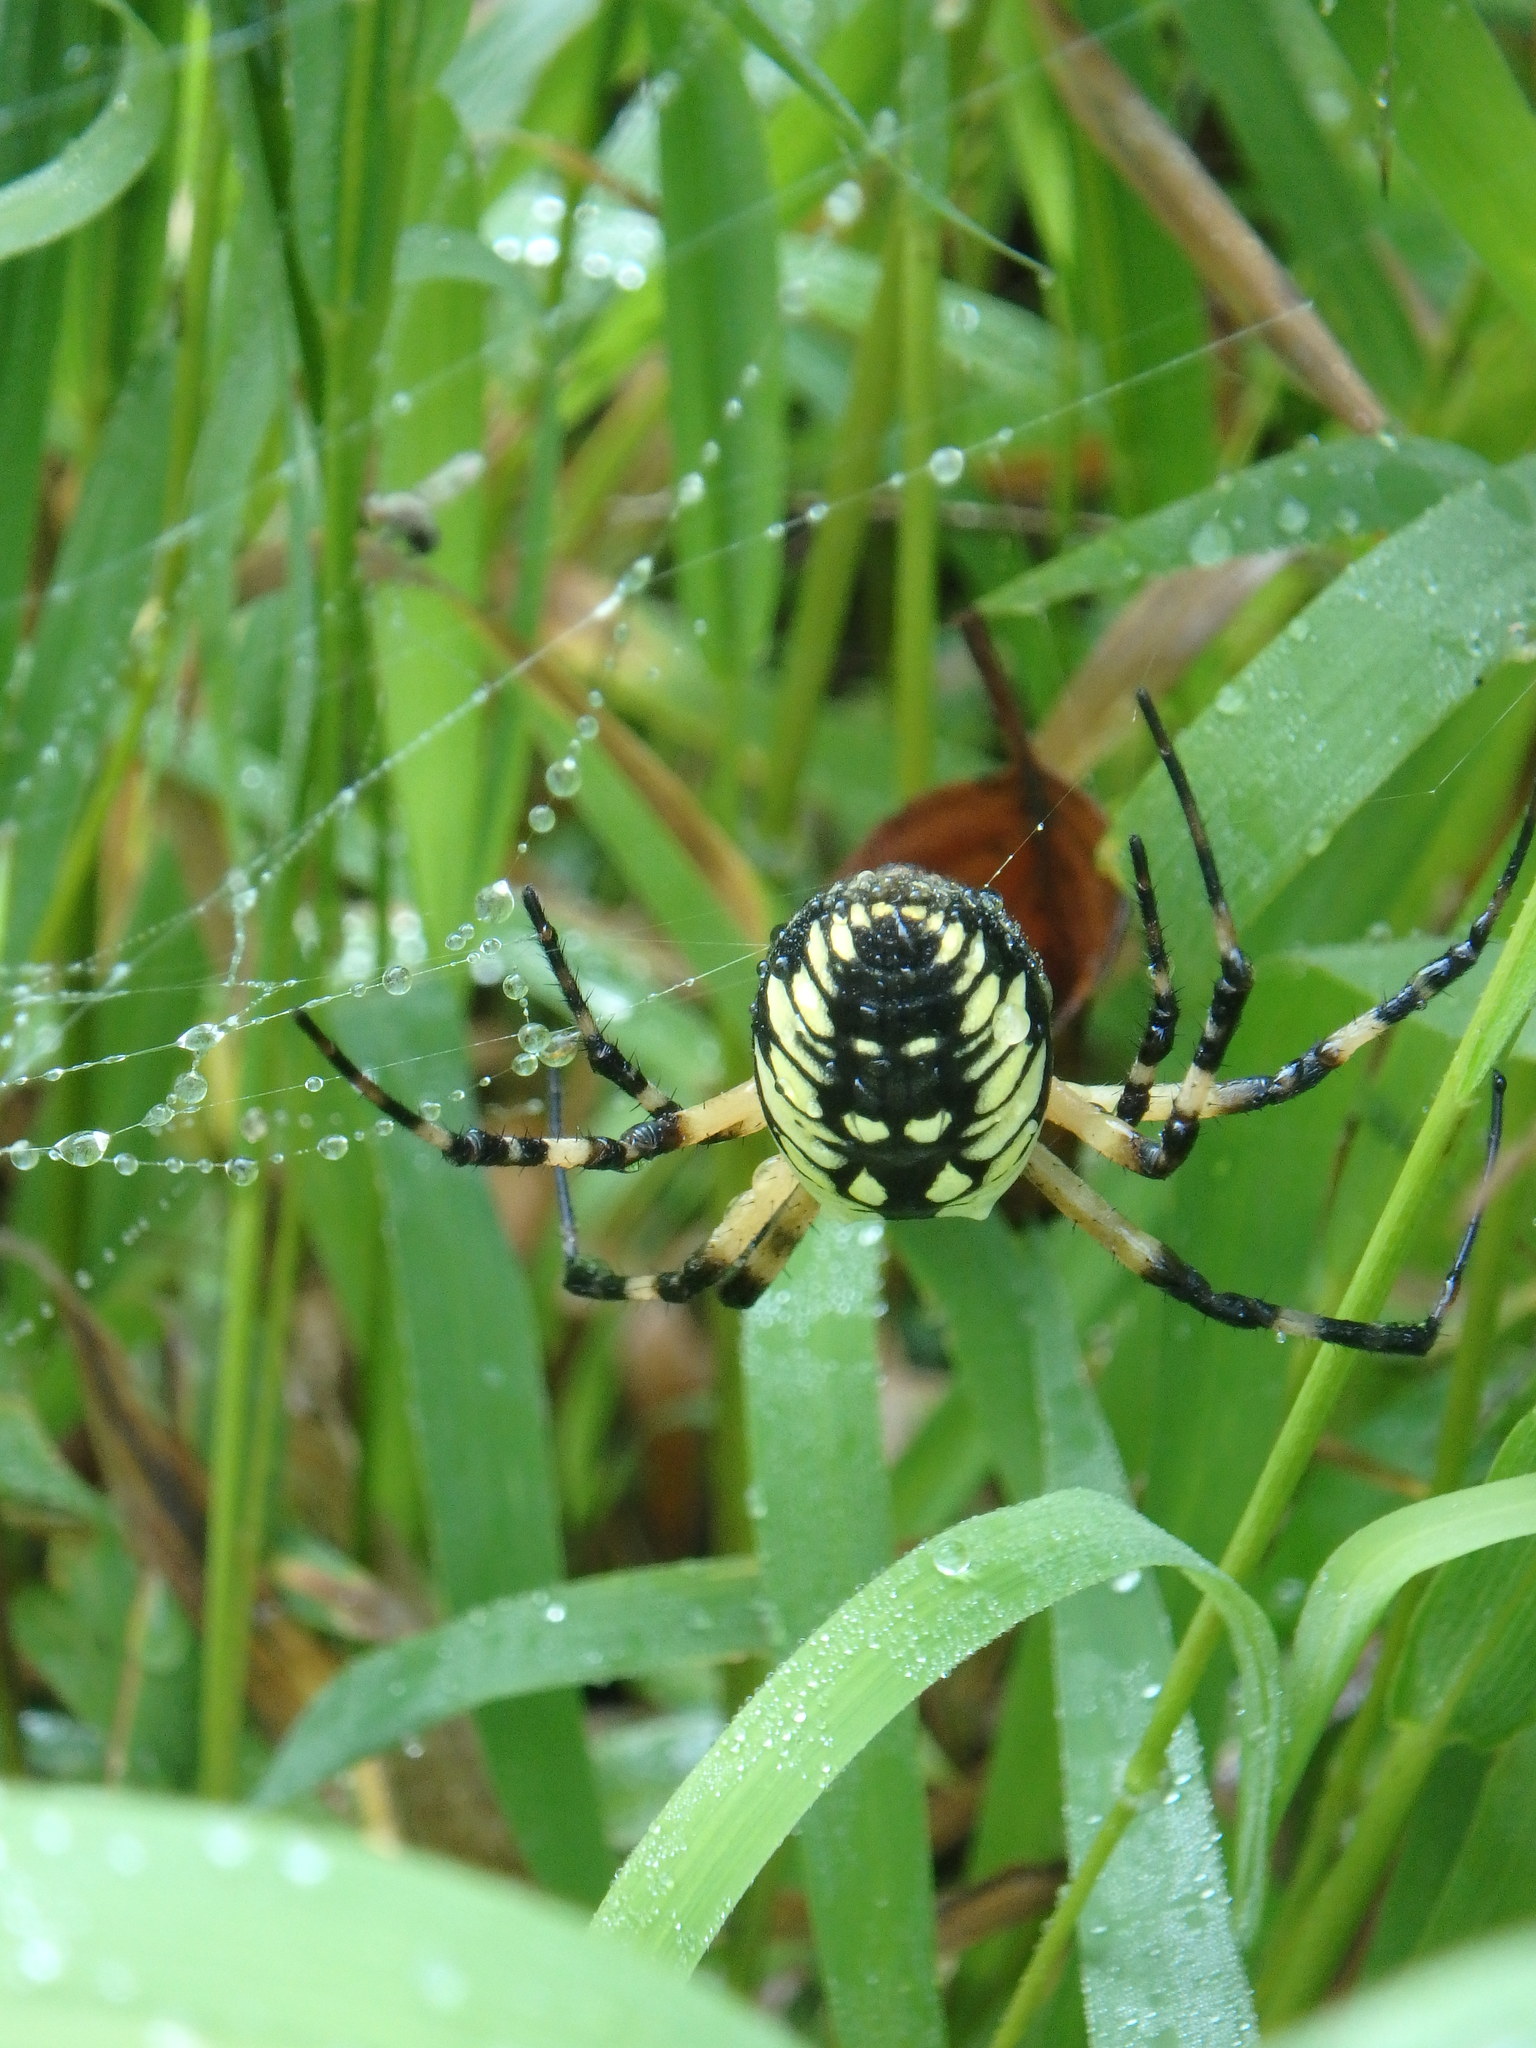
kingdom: Animalia
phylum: Arthropoda
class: Arachnida
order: Araneae
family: Araneidae
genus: Argiope
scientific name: Argiope aurantia
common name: Orb weavers
